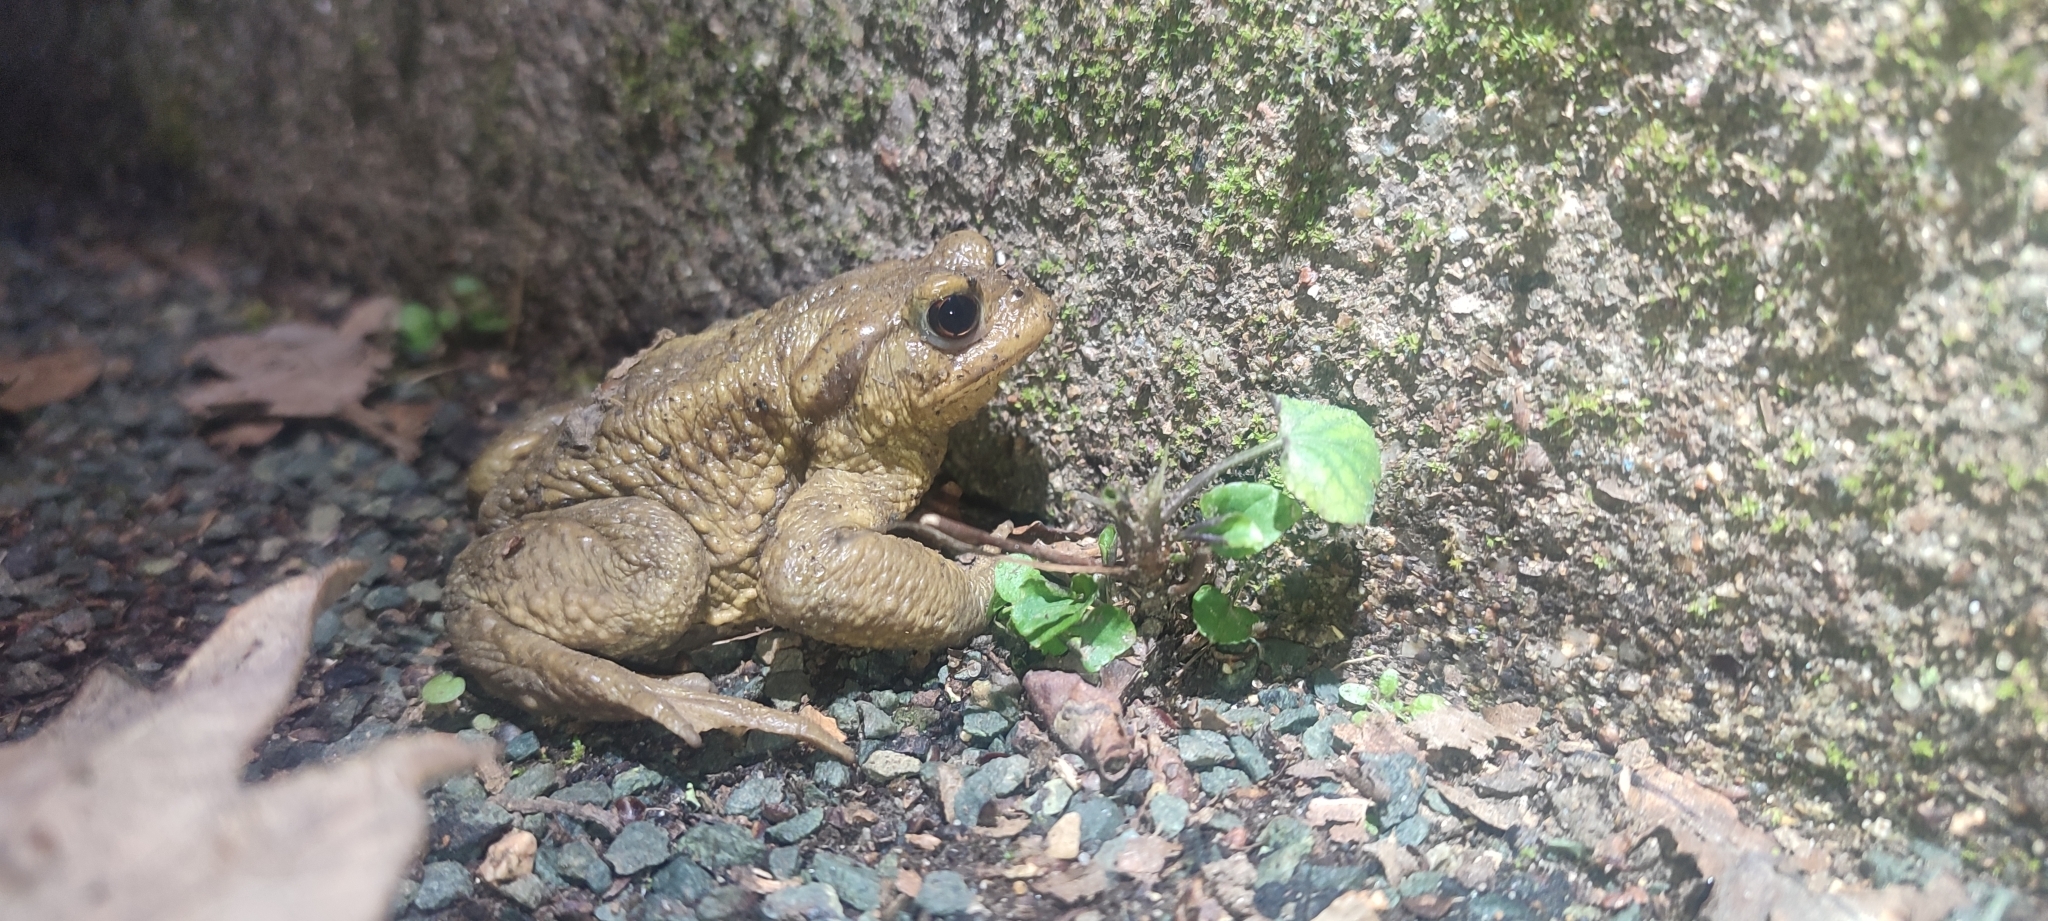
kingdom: Animalia
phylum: Chordata
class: Amphibia
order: Anura
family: Bufonidae
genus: Bufo
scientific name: Bufo spinosus
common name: Western common toad
